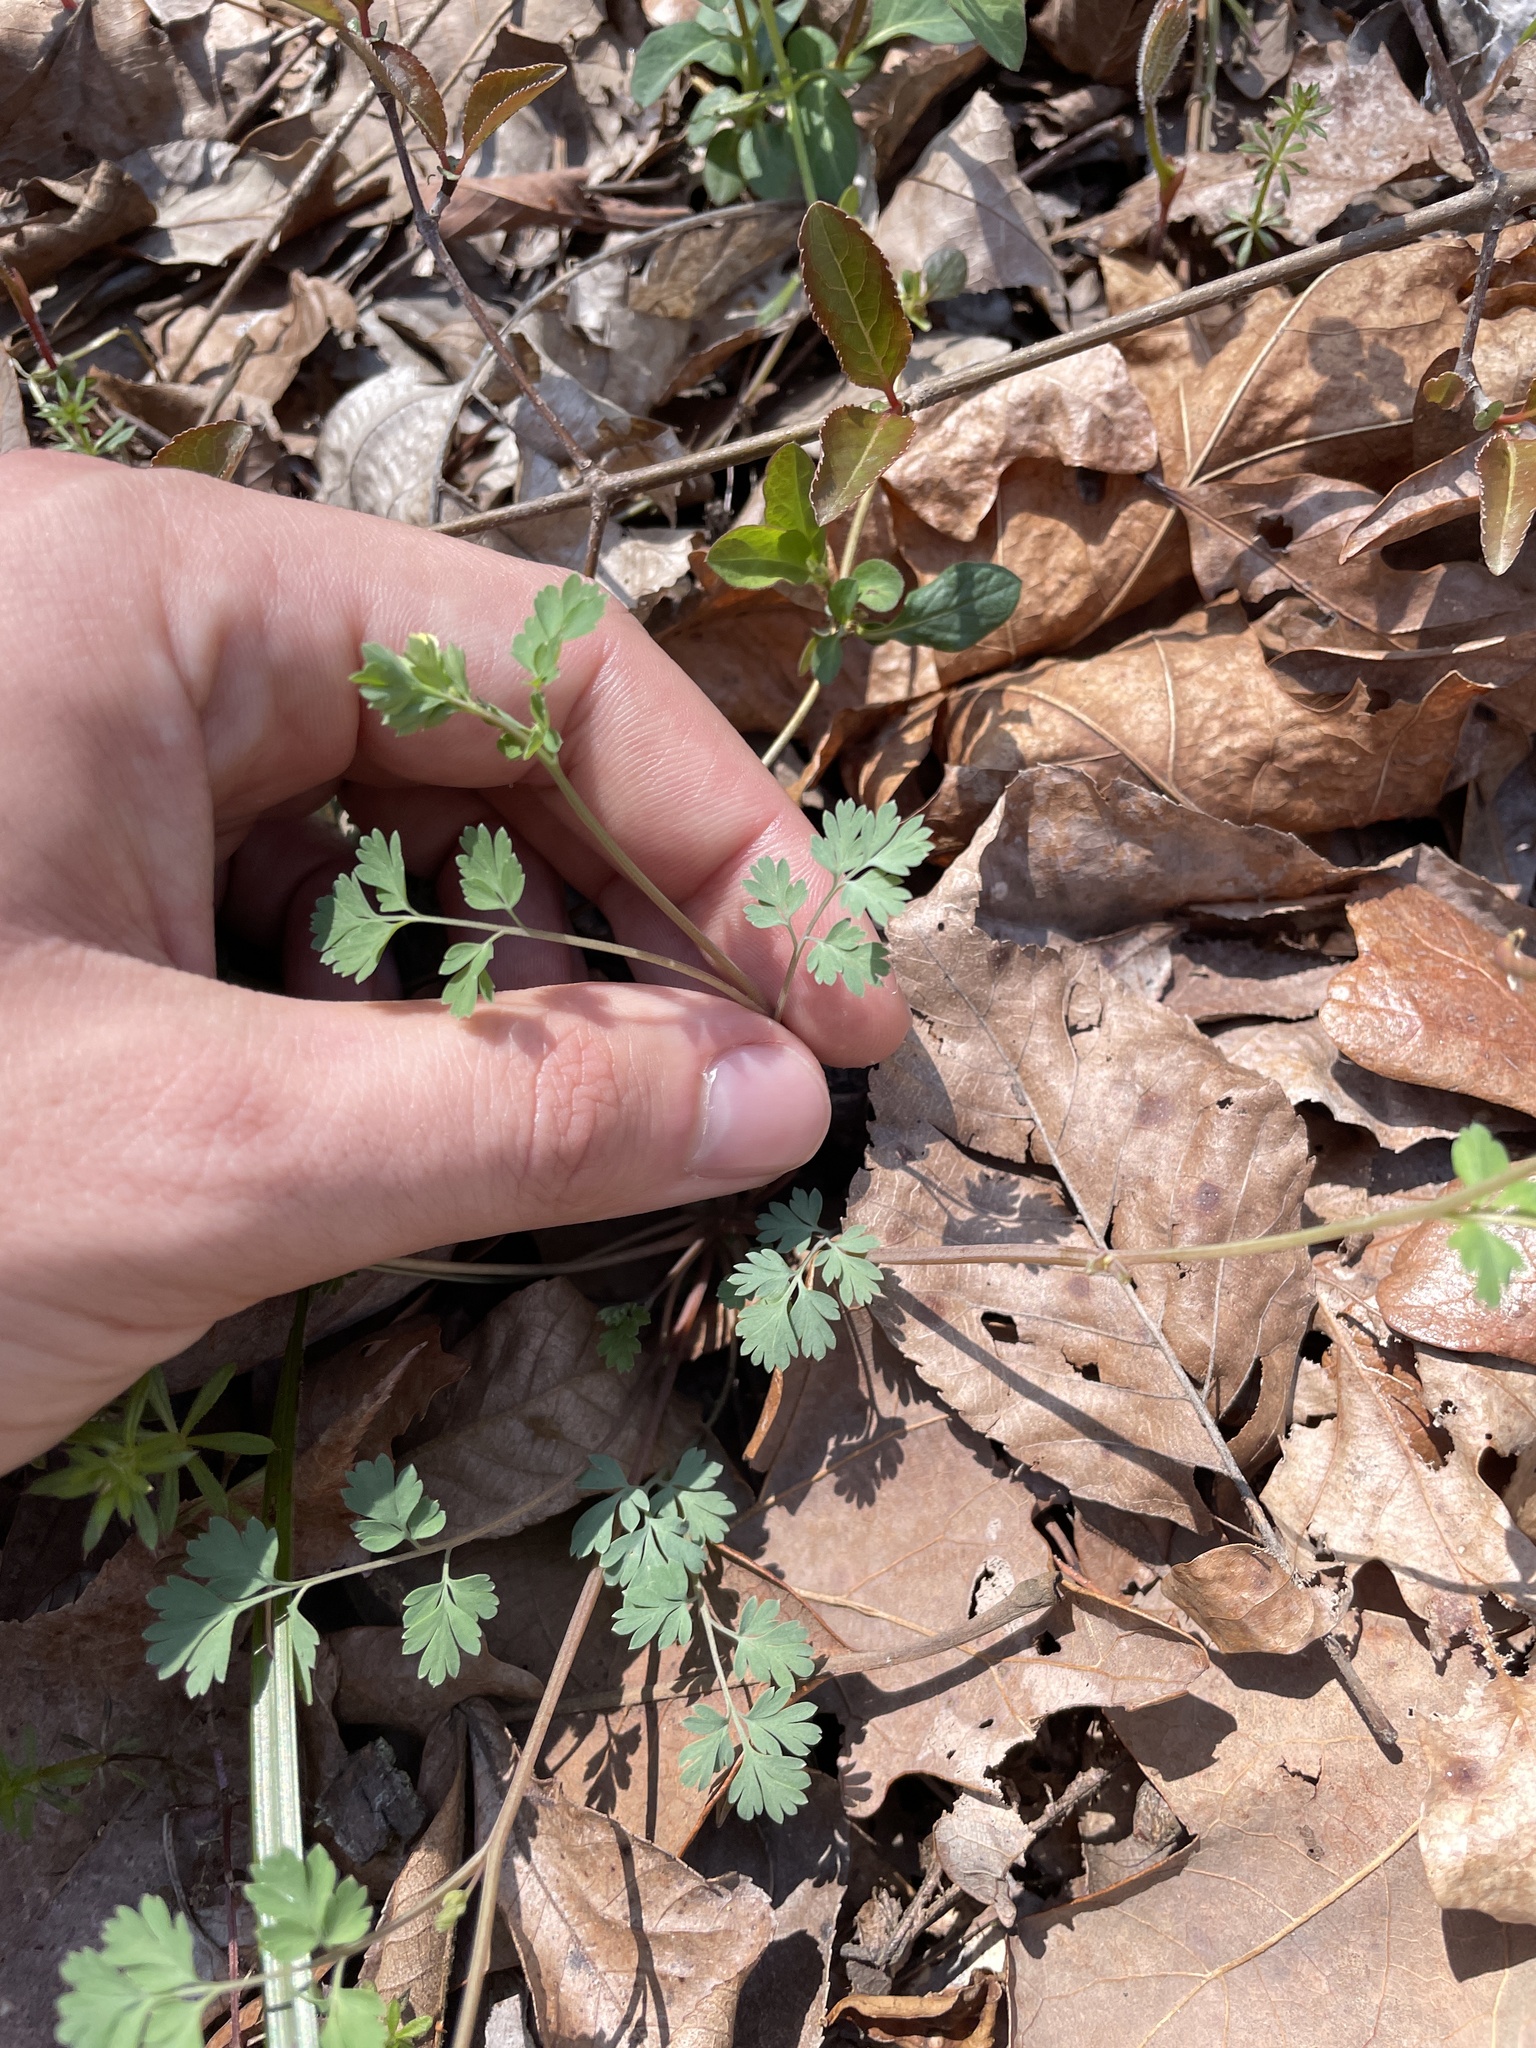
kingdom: Plantae
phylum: Tracheophyta
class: Magnoliopsida
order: Ranunculales
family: Papaveraceae
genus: Corydalis
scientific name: Corydalis flavula
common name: Yellow corydalis
